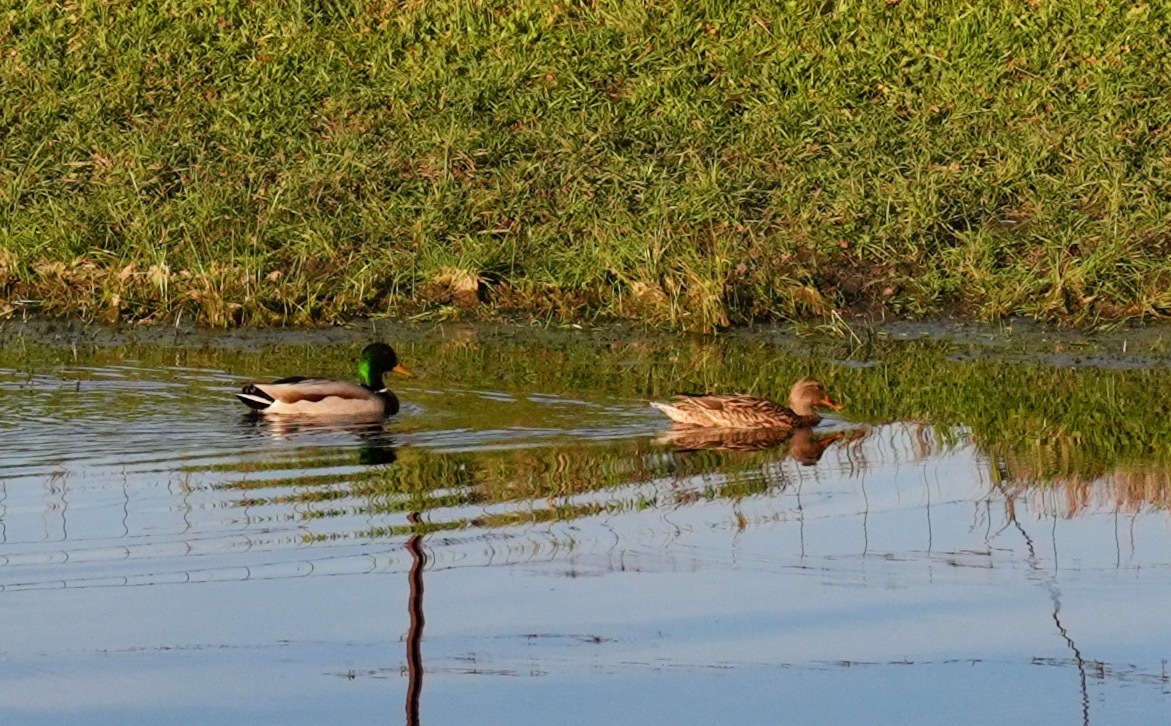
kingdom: Animalia
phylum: Chordata
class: Aves
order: Anseriformes
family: Anatidae
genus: Anas
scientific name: Anas platyrhynchos
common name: Mallard
